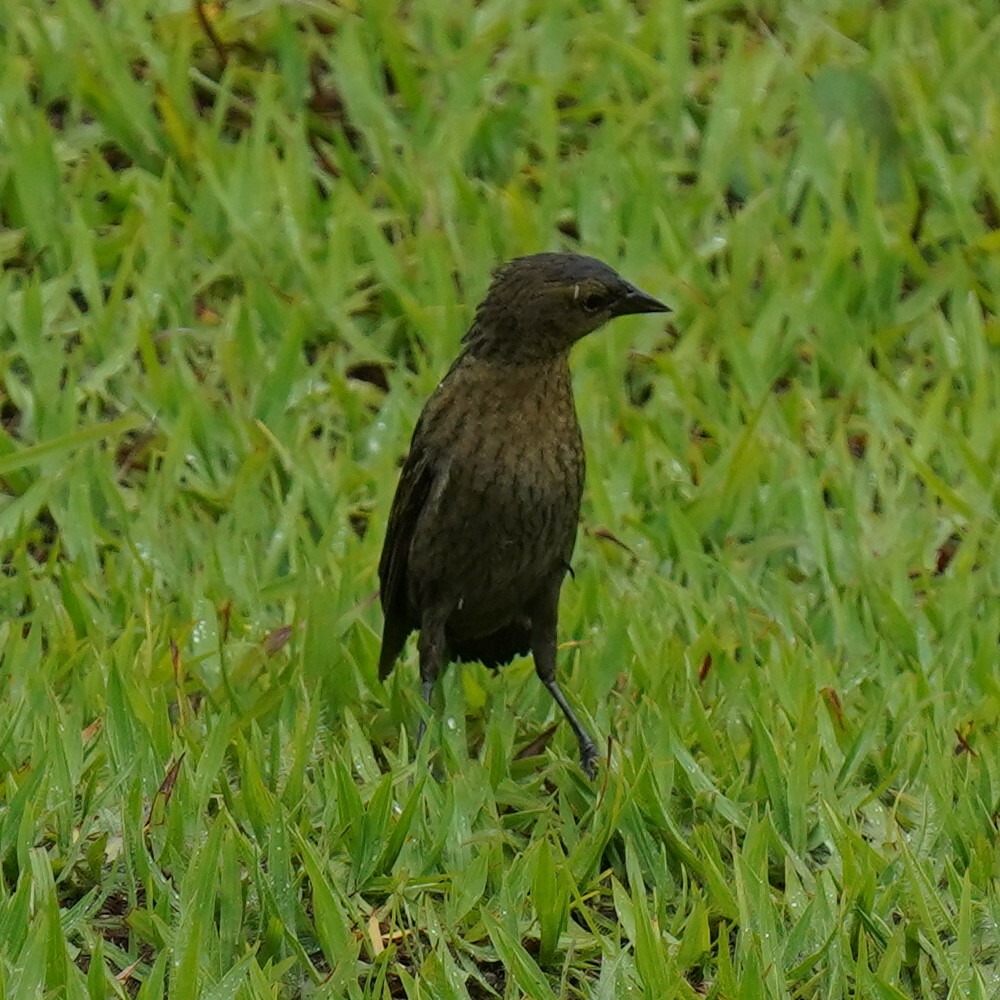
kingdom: Animalia
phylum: Chordata
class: Aves
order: Passeriformes
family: Icteridae
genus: Chrysomus
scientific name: Chrysomus ruficapillus
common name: Chestnut-capped blackbird
